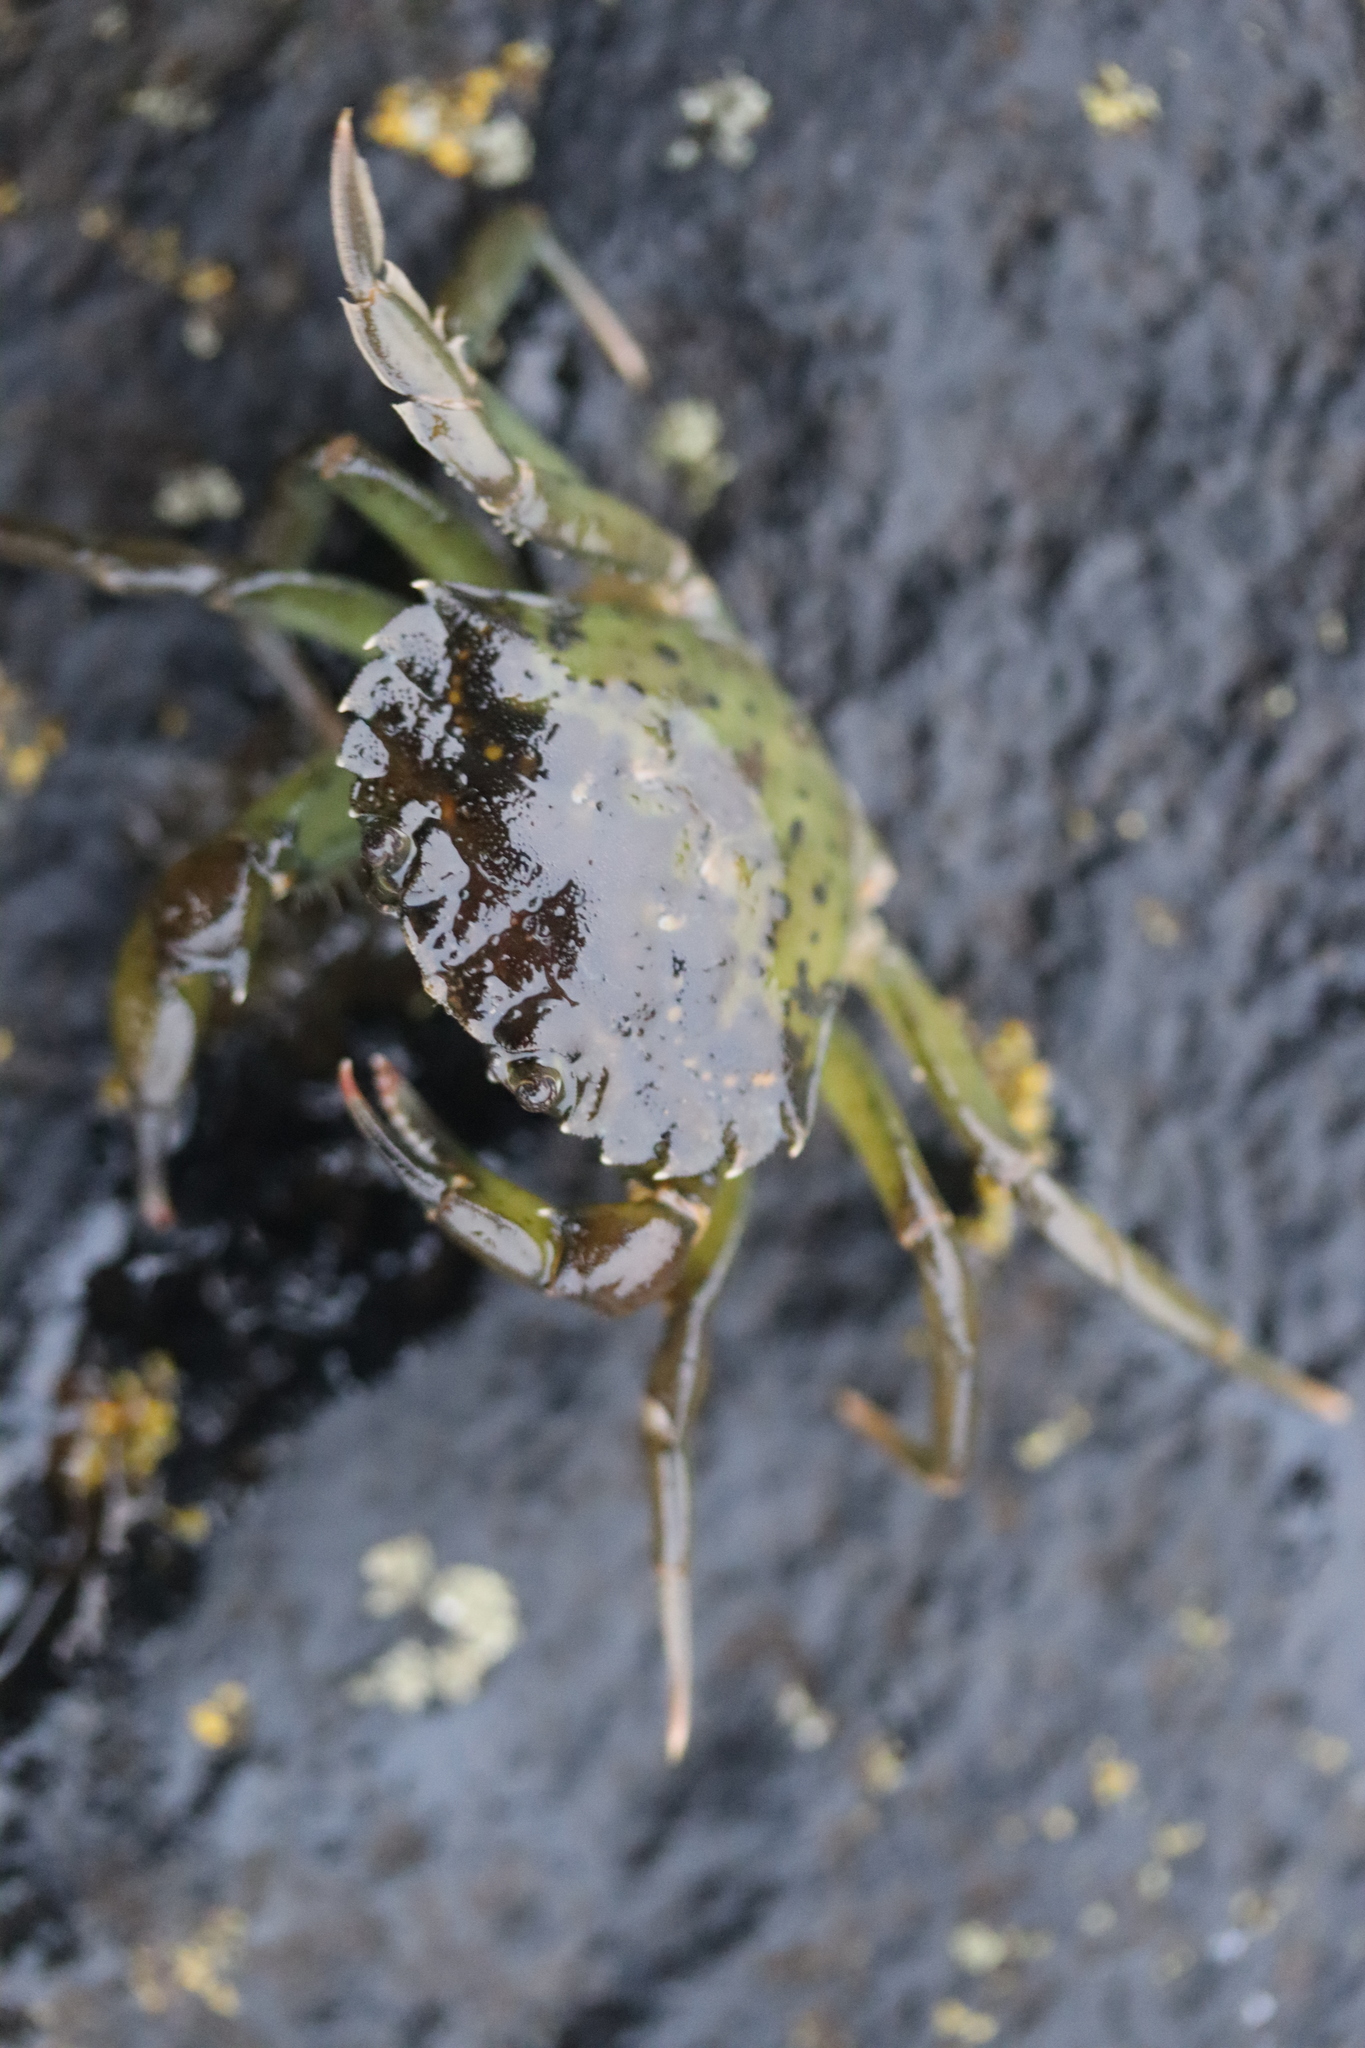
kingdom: Animalia
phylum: Arthropoda
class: Malacostraca
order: Decapoda
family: Carcinidae
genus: Carcinus
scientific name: Carcinus maenas
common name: European green crab
